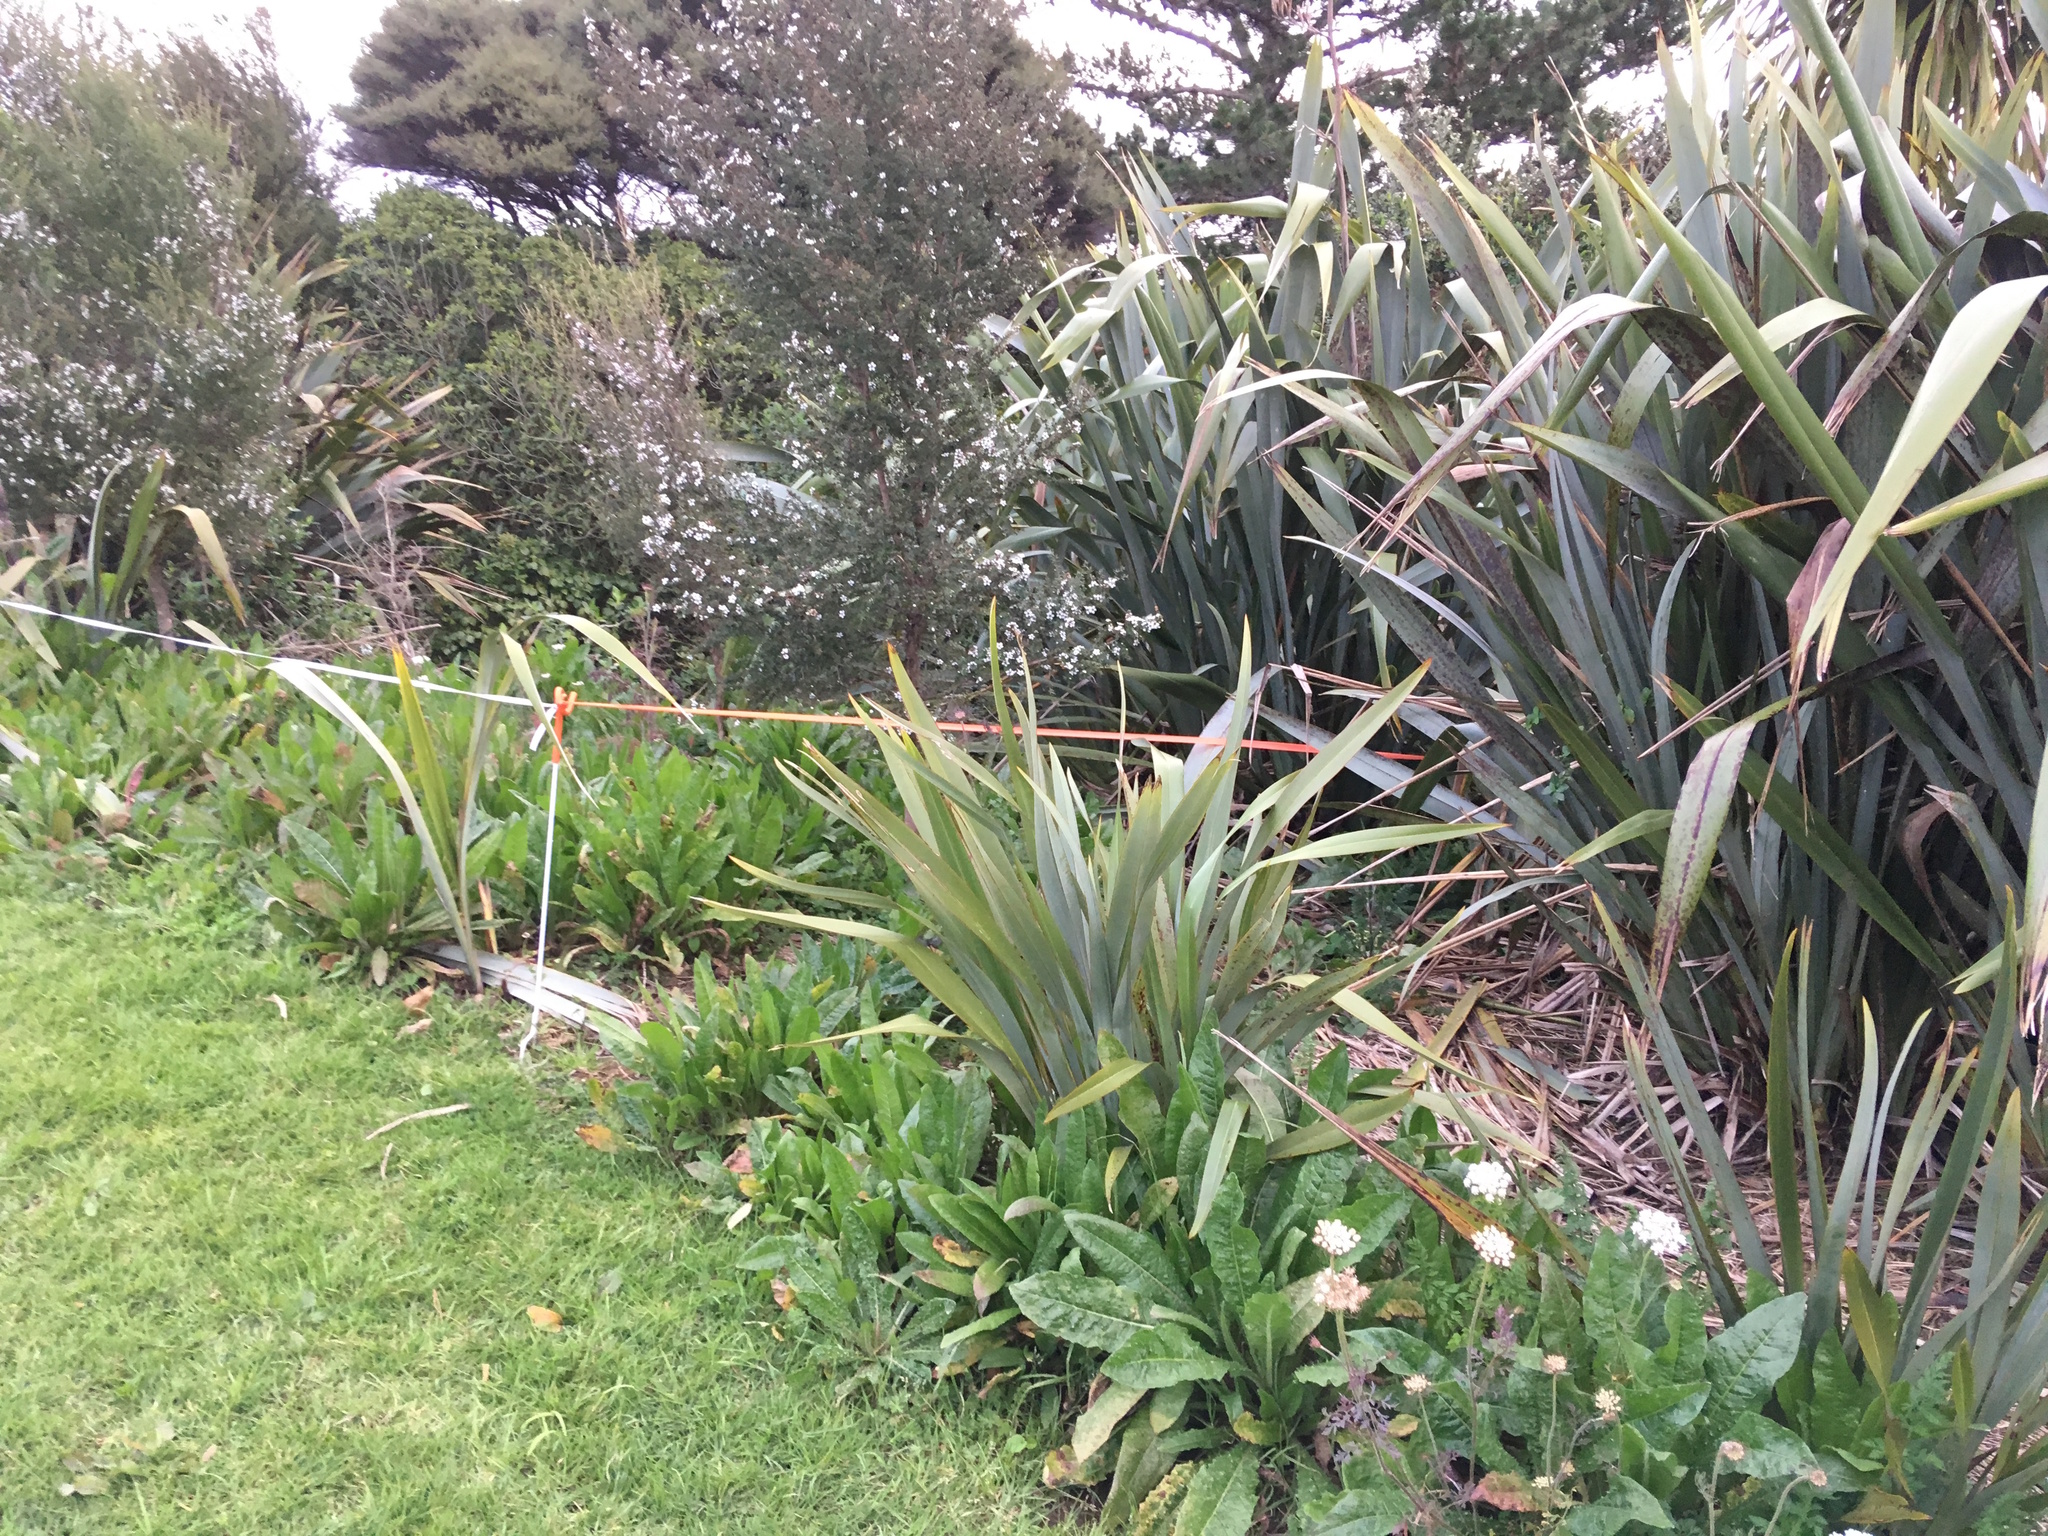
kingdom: Plantae
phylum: Tracheophyta
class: Liliopsida
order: Poales
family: Poaceae
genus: Cenchrus
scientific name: Cenchrus clandestinus
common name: Kikuyugrass
